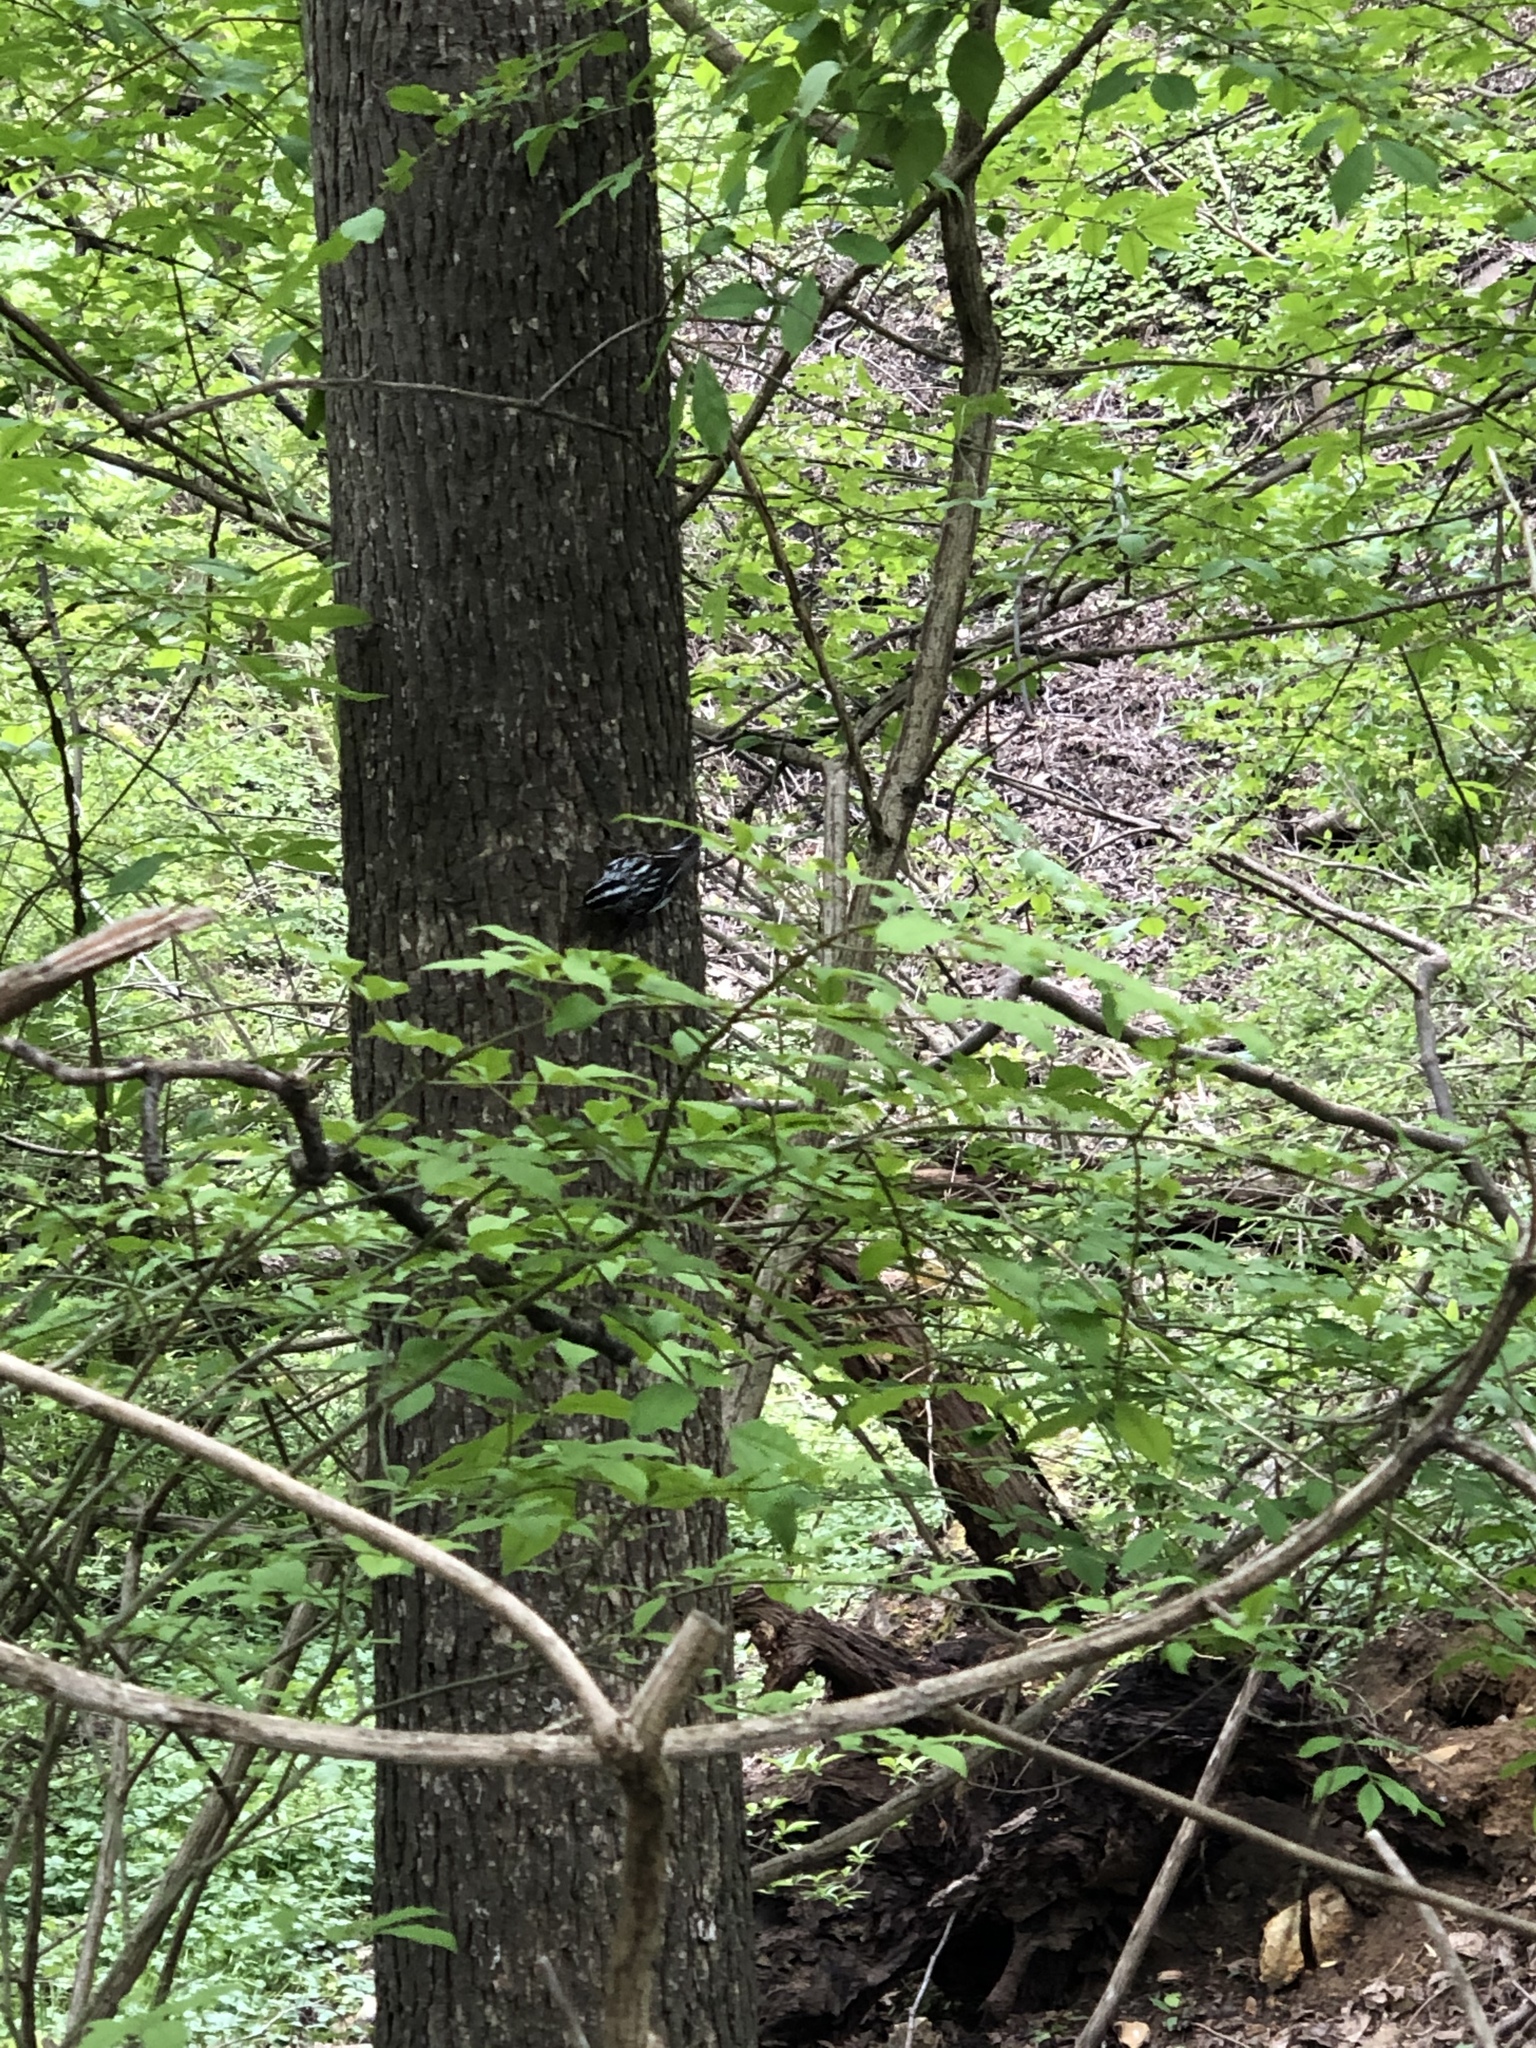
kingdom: Animalia
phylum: Chordata
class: Aves
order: Passeriformes
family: Parulidae
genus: Mniotilta
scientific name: Mniotilta varia
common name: Black-and-white warbler
